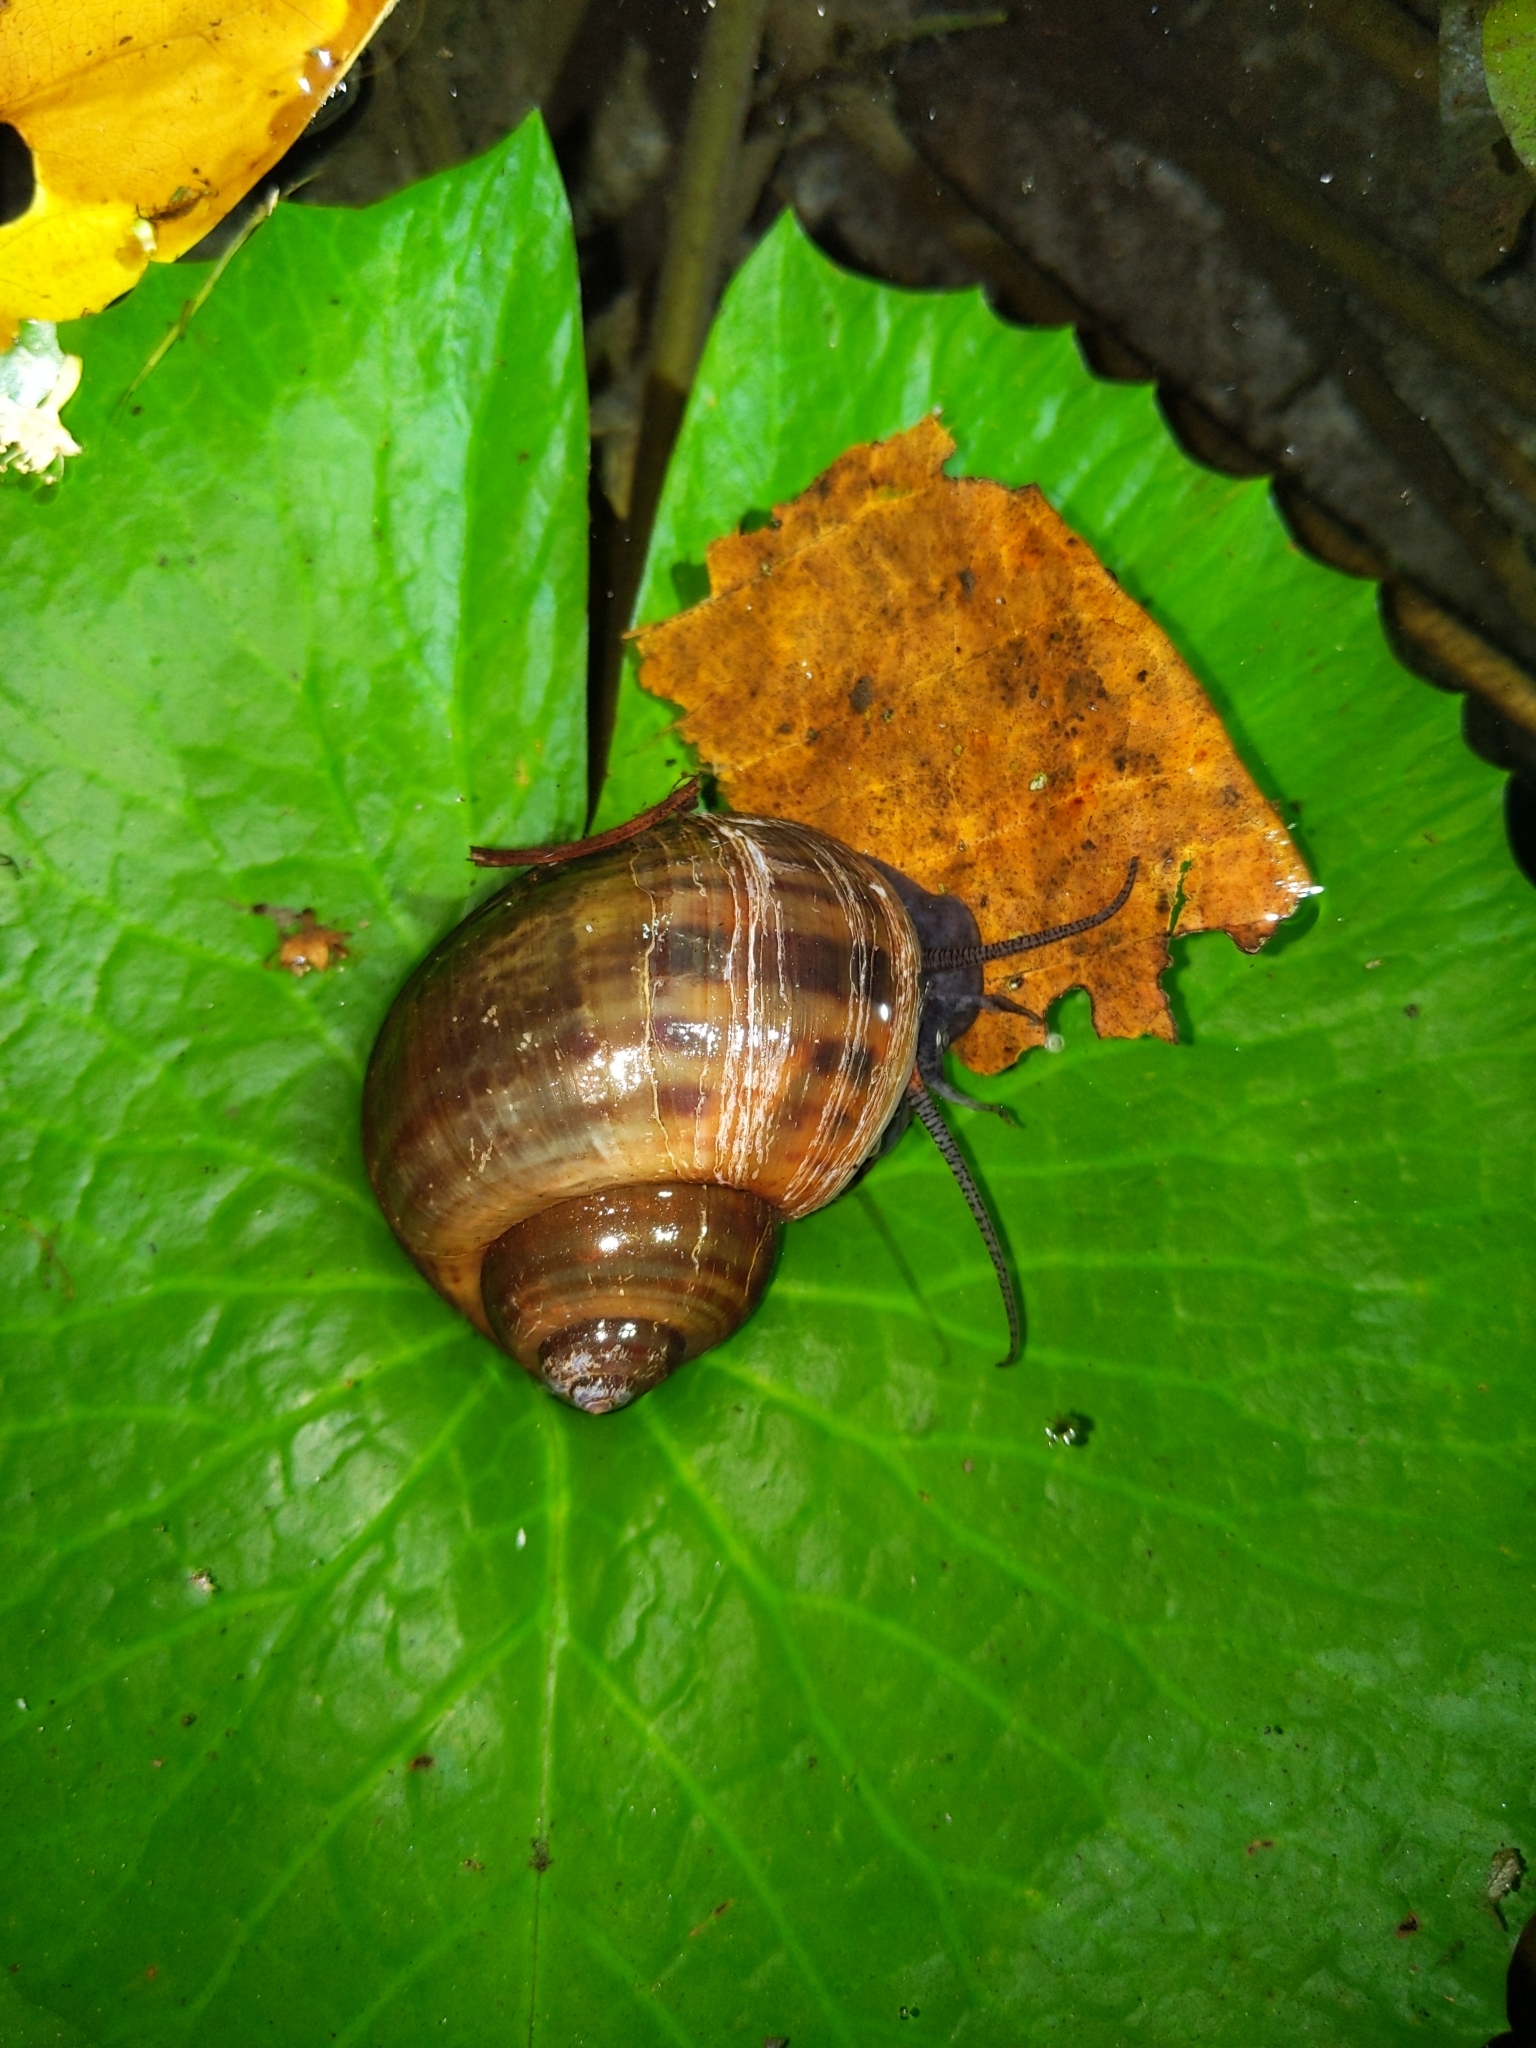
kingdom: Animalia
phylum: Mollusca
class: Gastropoda
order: Architaenioglossa
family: Ampullariidae
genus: Pomacea
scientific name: Pomacea canaliculata
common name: Channeled applesnail
